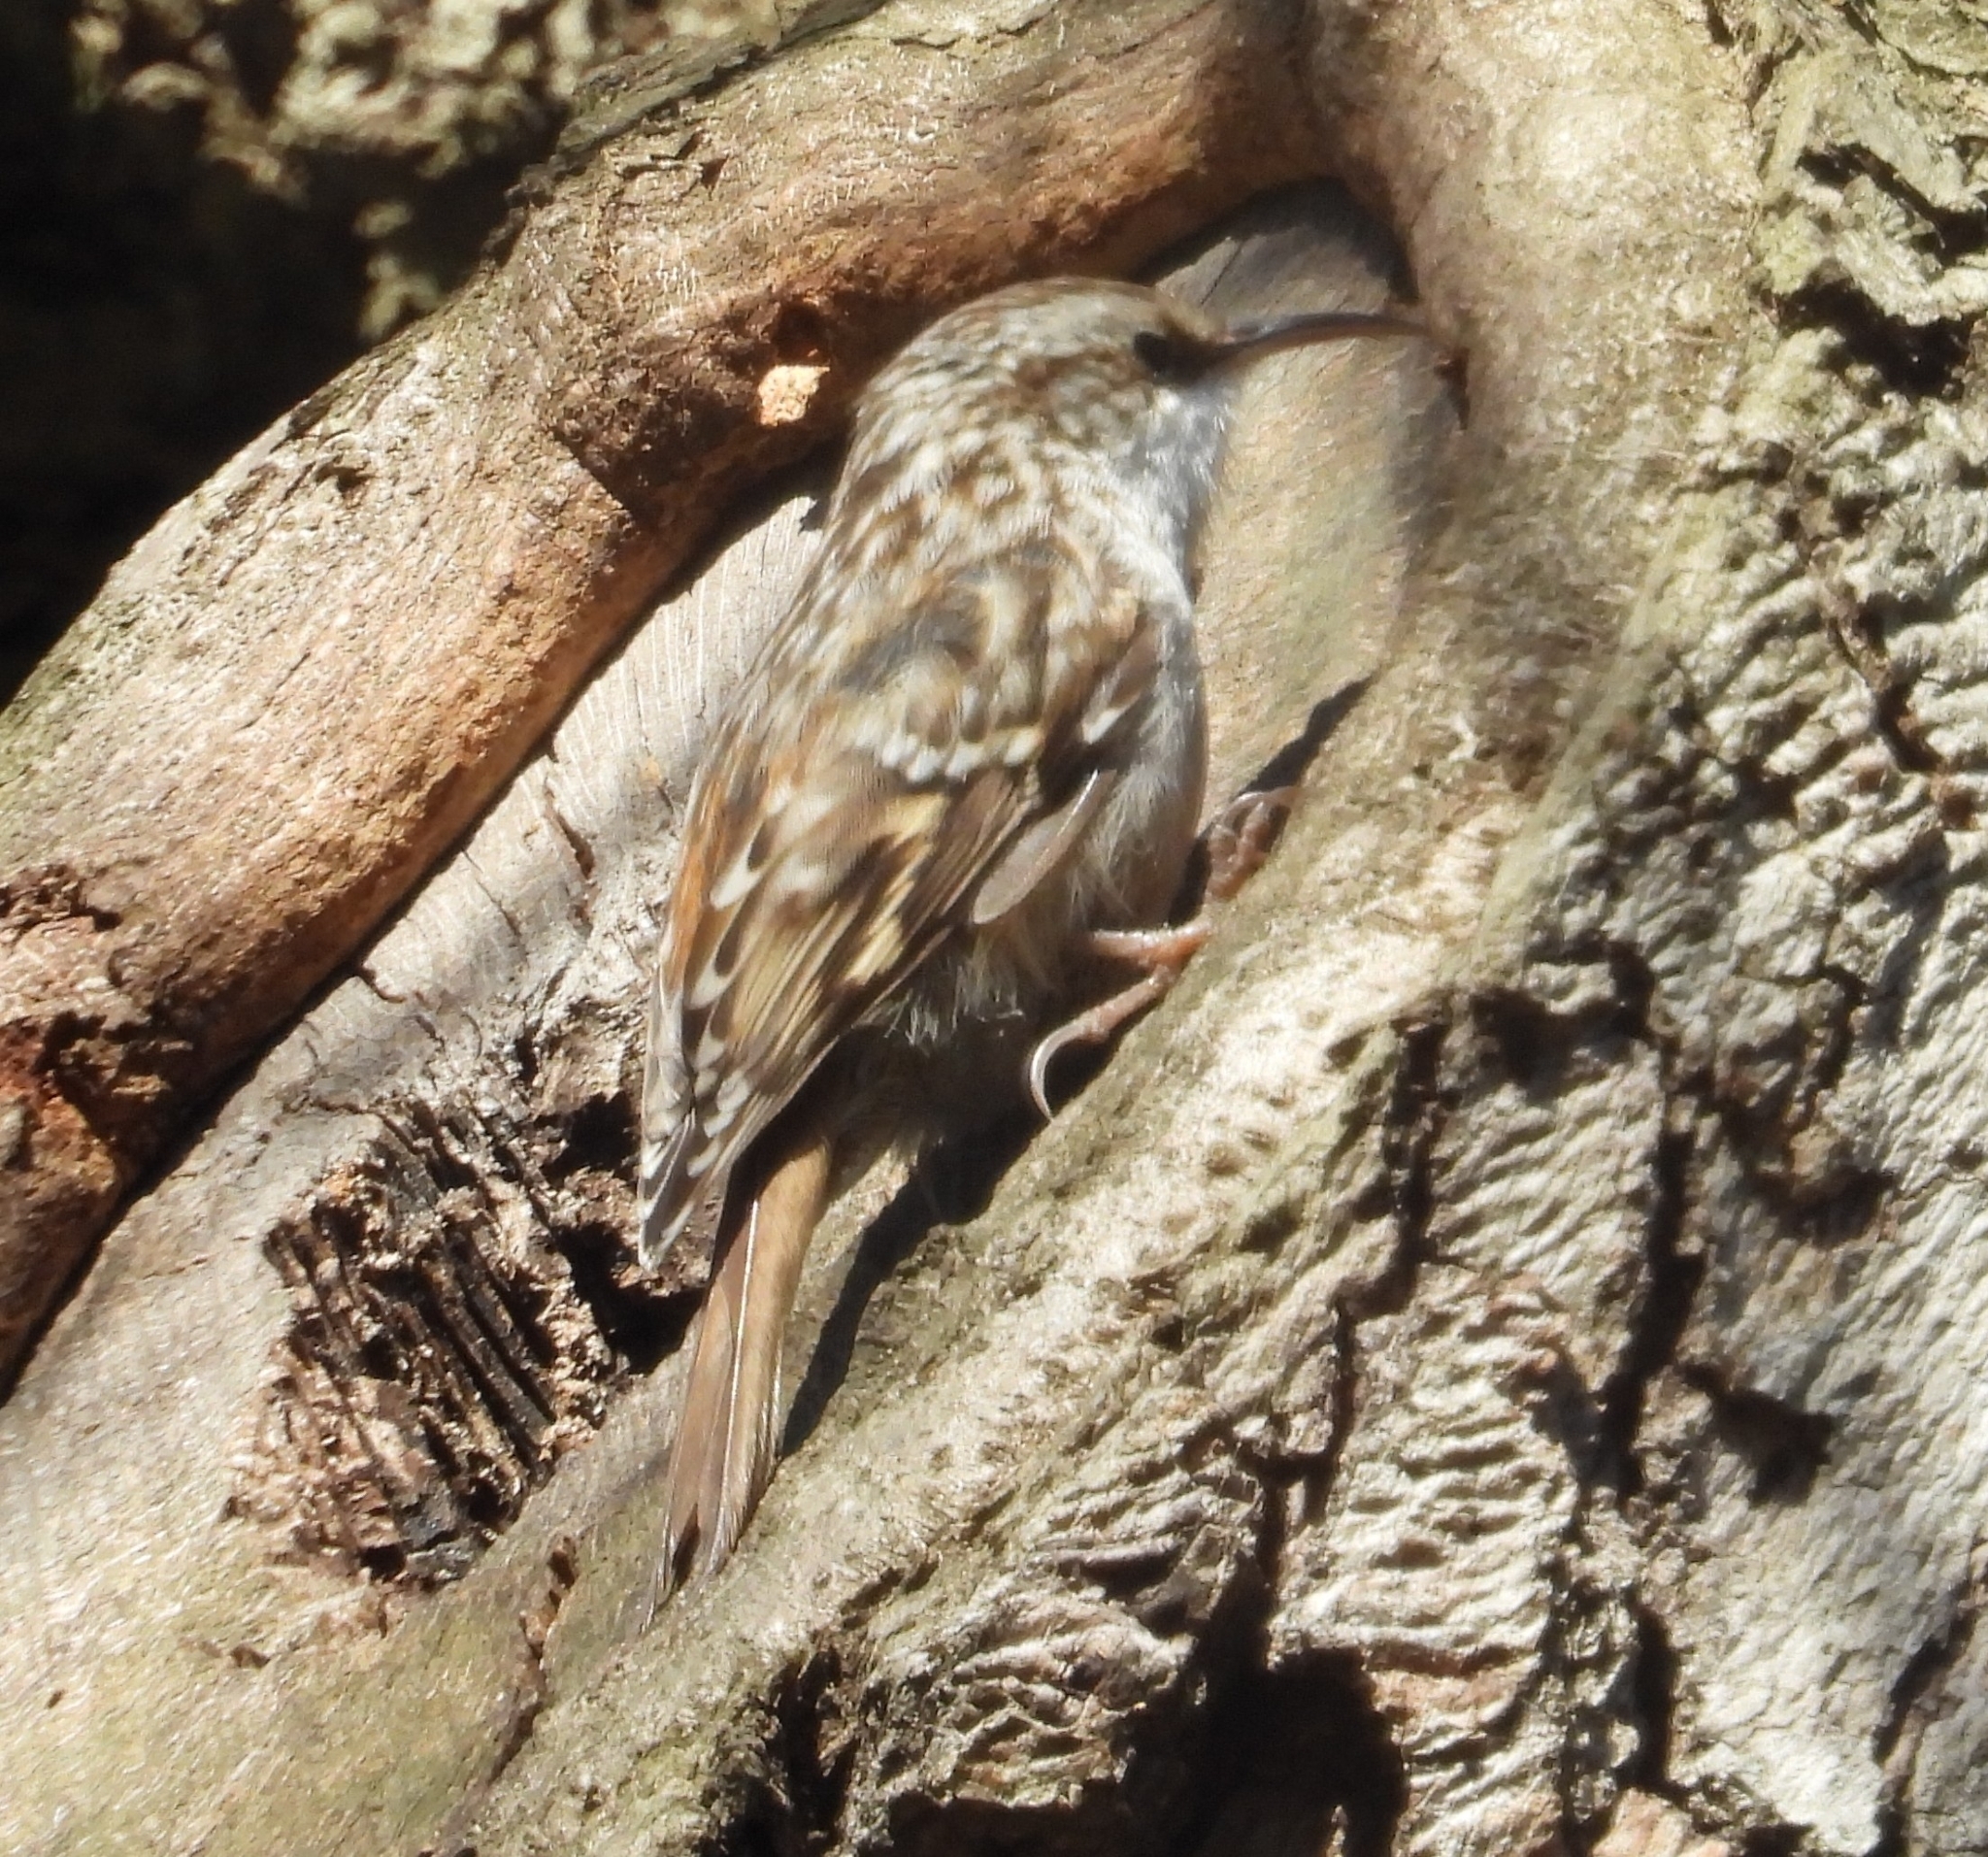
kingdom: Animalia
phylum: Chordata
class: Aves
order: Passeriformes
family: Certhiidae
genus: Certhia
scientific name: Certhia familiaris
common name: Eurasian treecreeper
